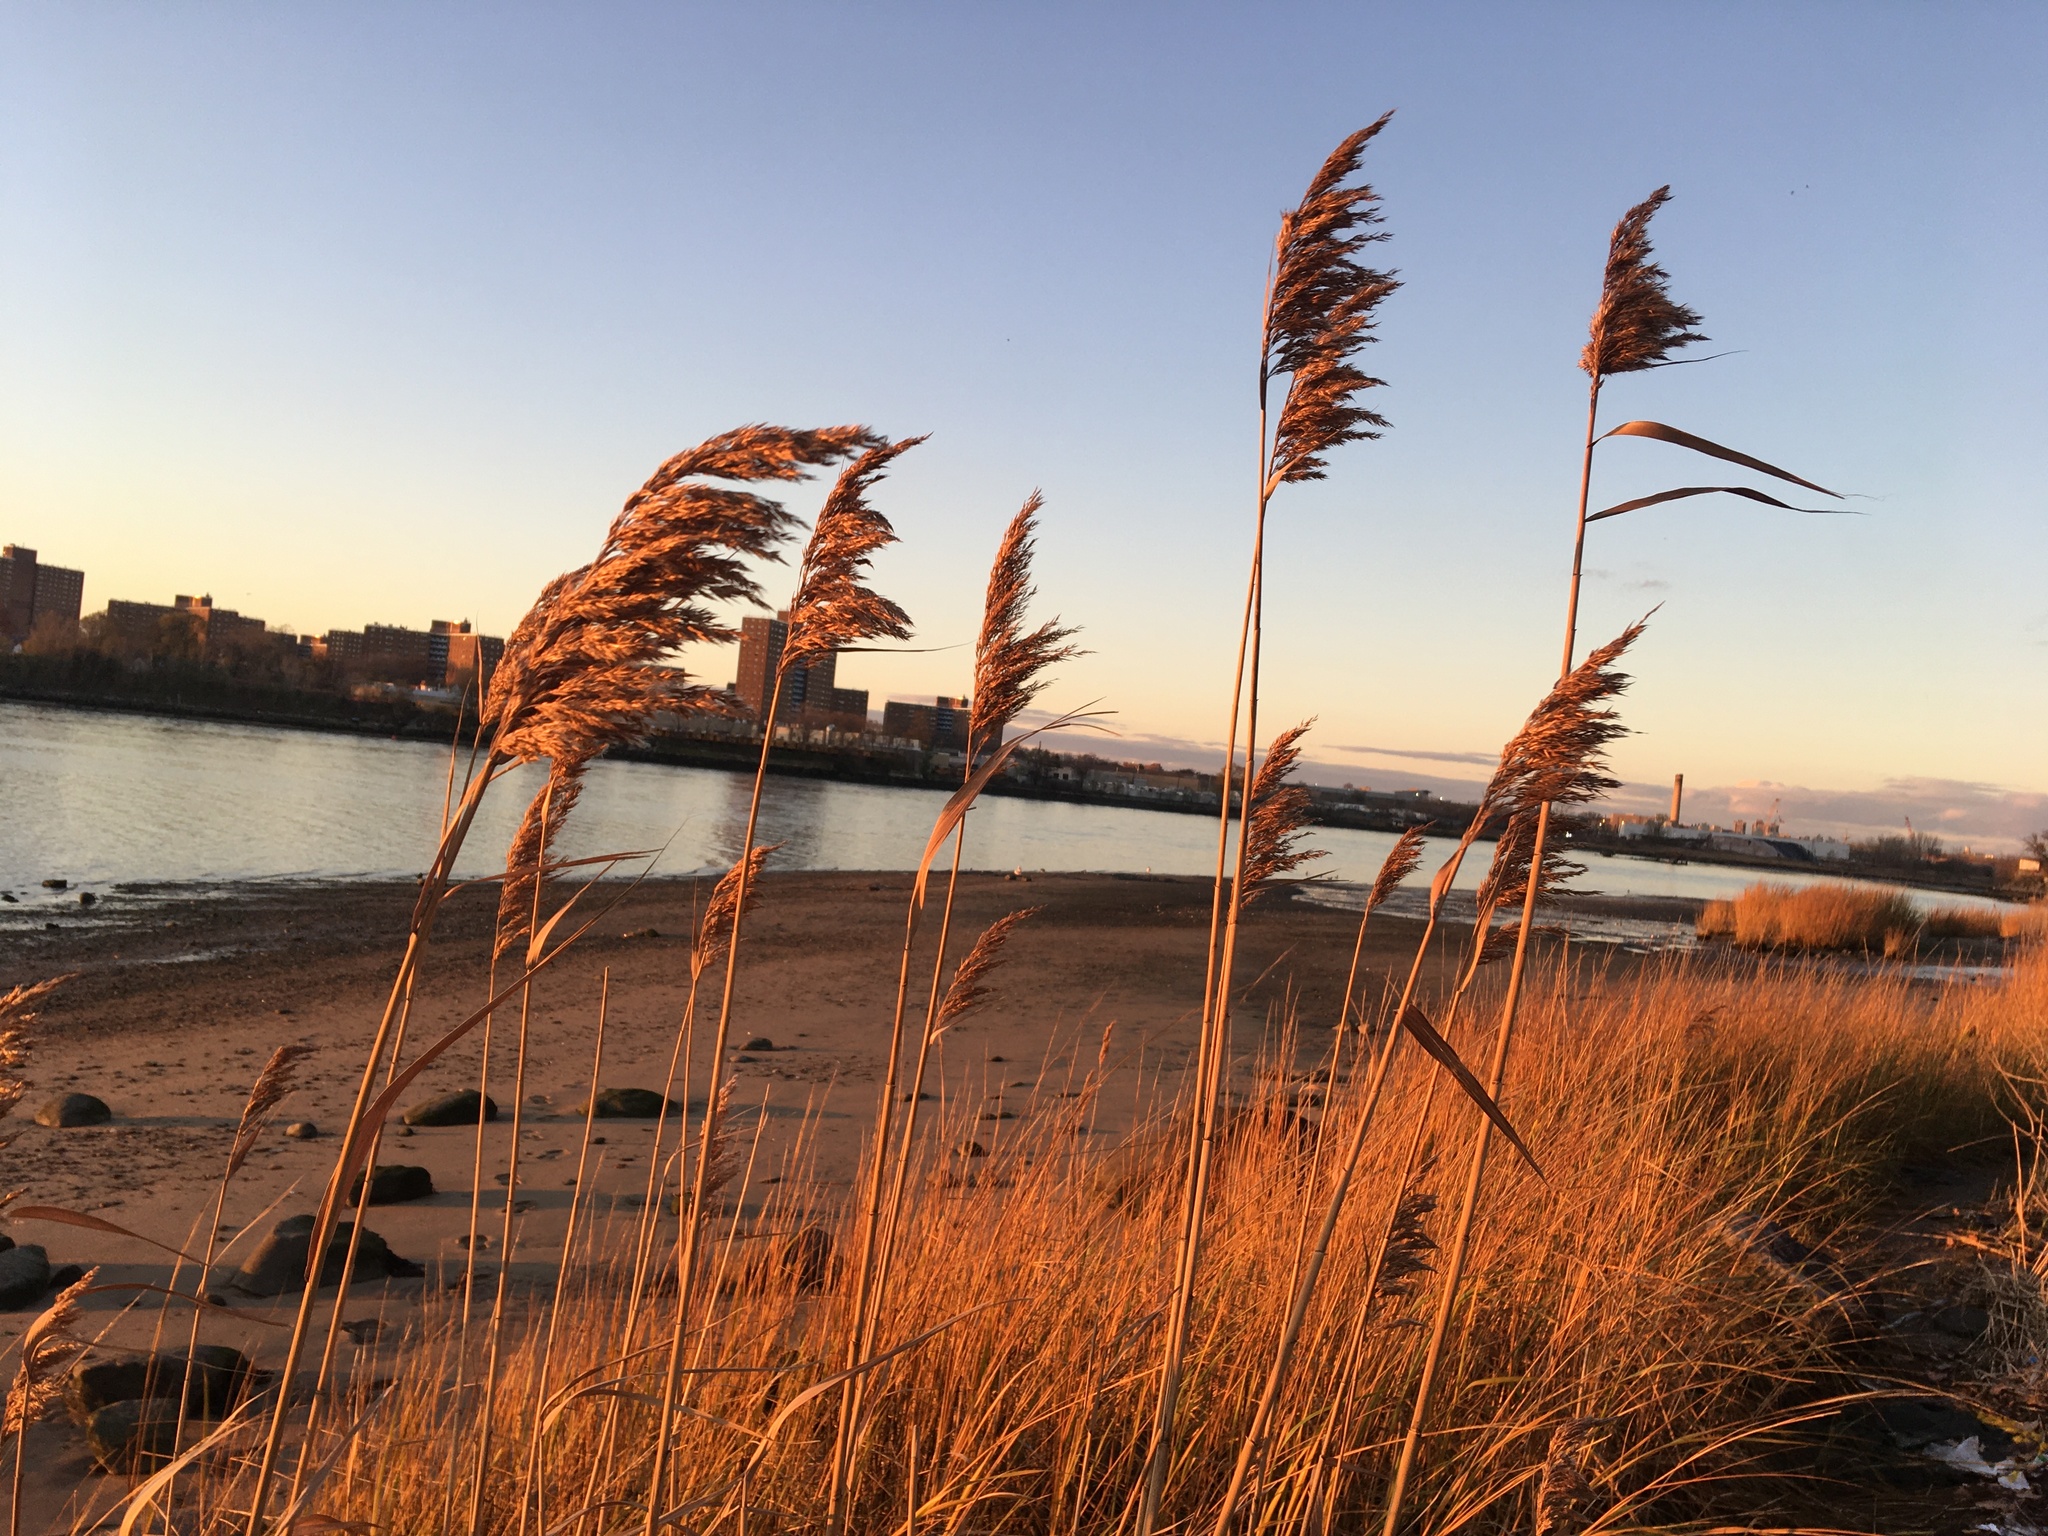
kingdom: Plantae
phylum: Tracheophyta
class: Liliopsida
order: Poales
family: Poaceae
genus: Phragmites
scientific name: Phragmites australis
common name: Common reed
